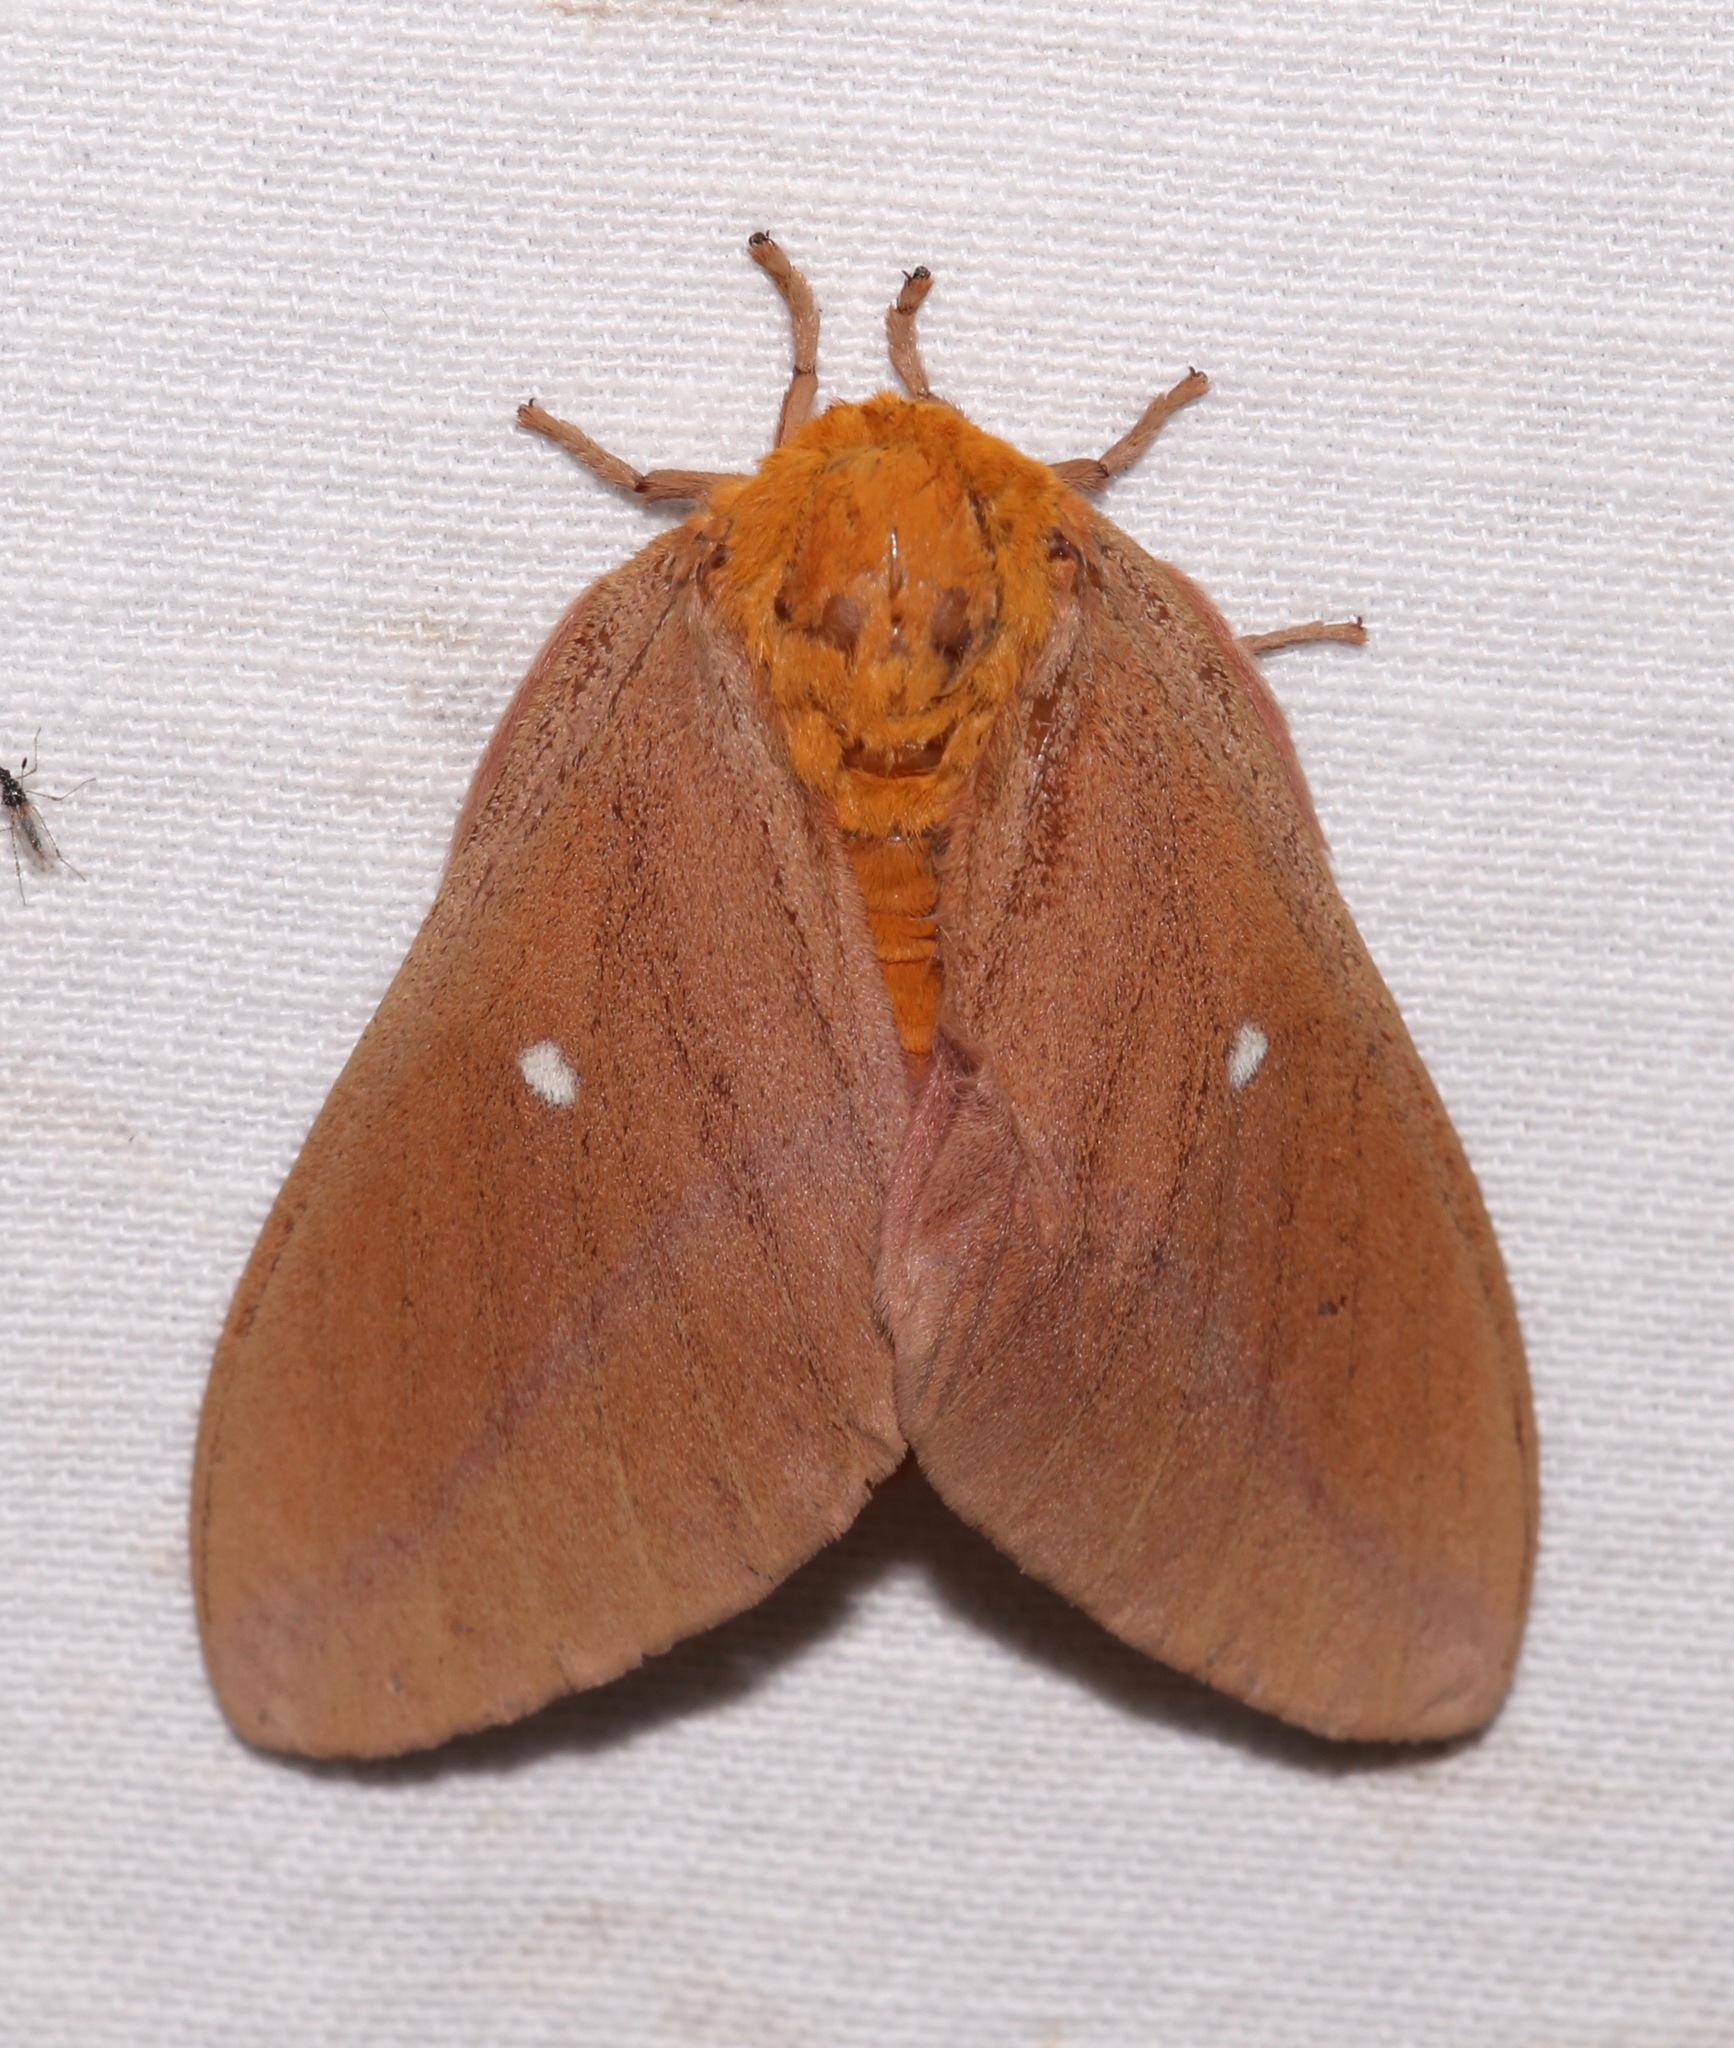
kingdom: Animalia
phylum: Arthropoda
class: Insecta
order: Lepidoptera
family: Saturniidae
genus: Anisota
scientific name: Anisota oslari
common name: Oslar's oakworm moth
